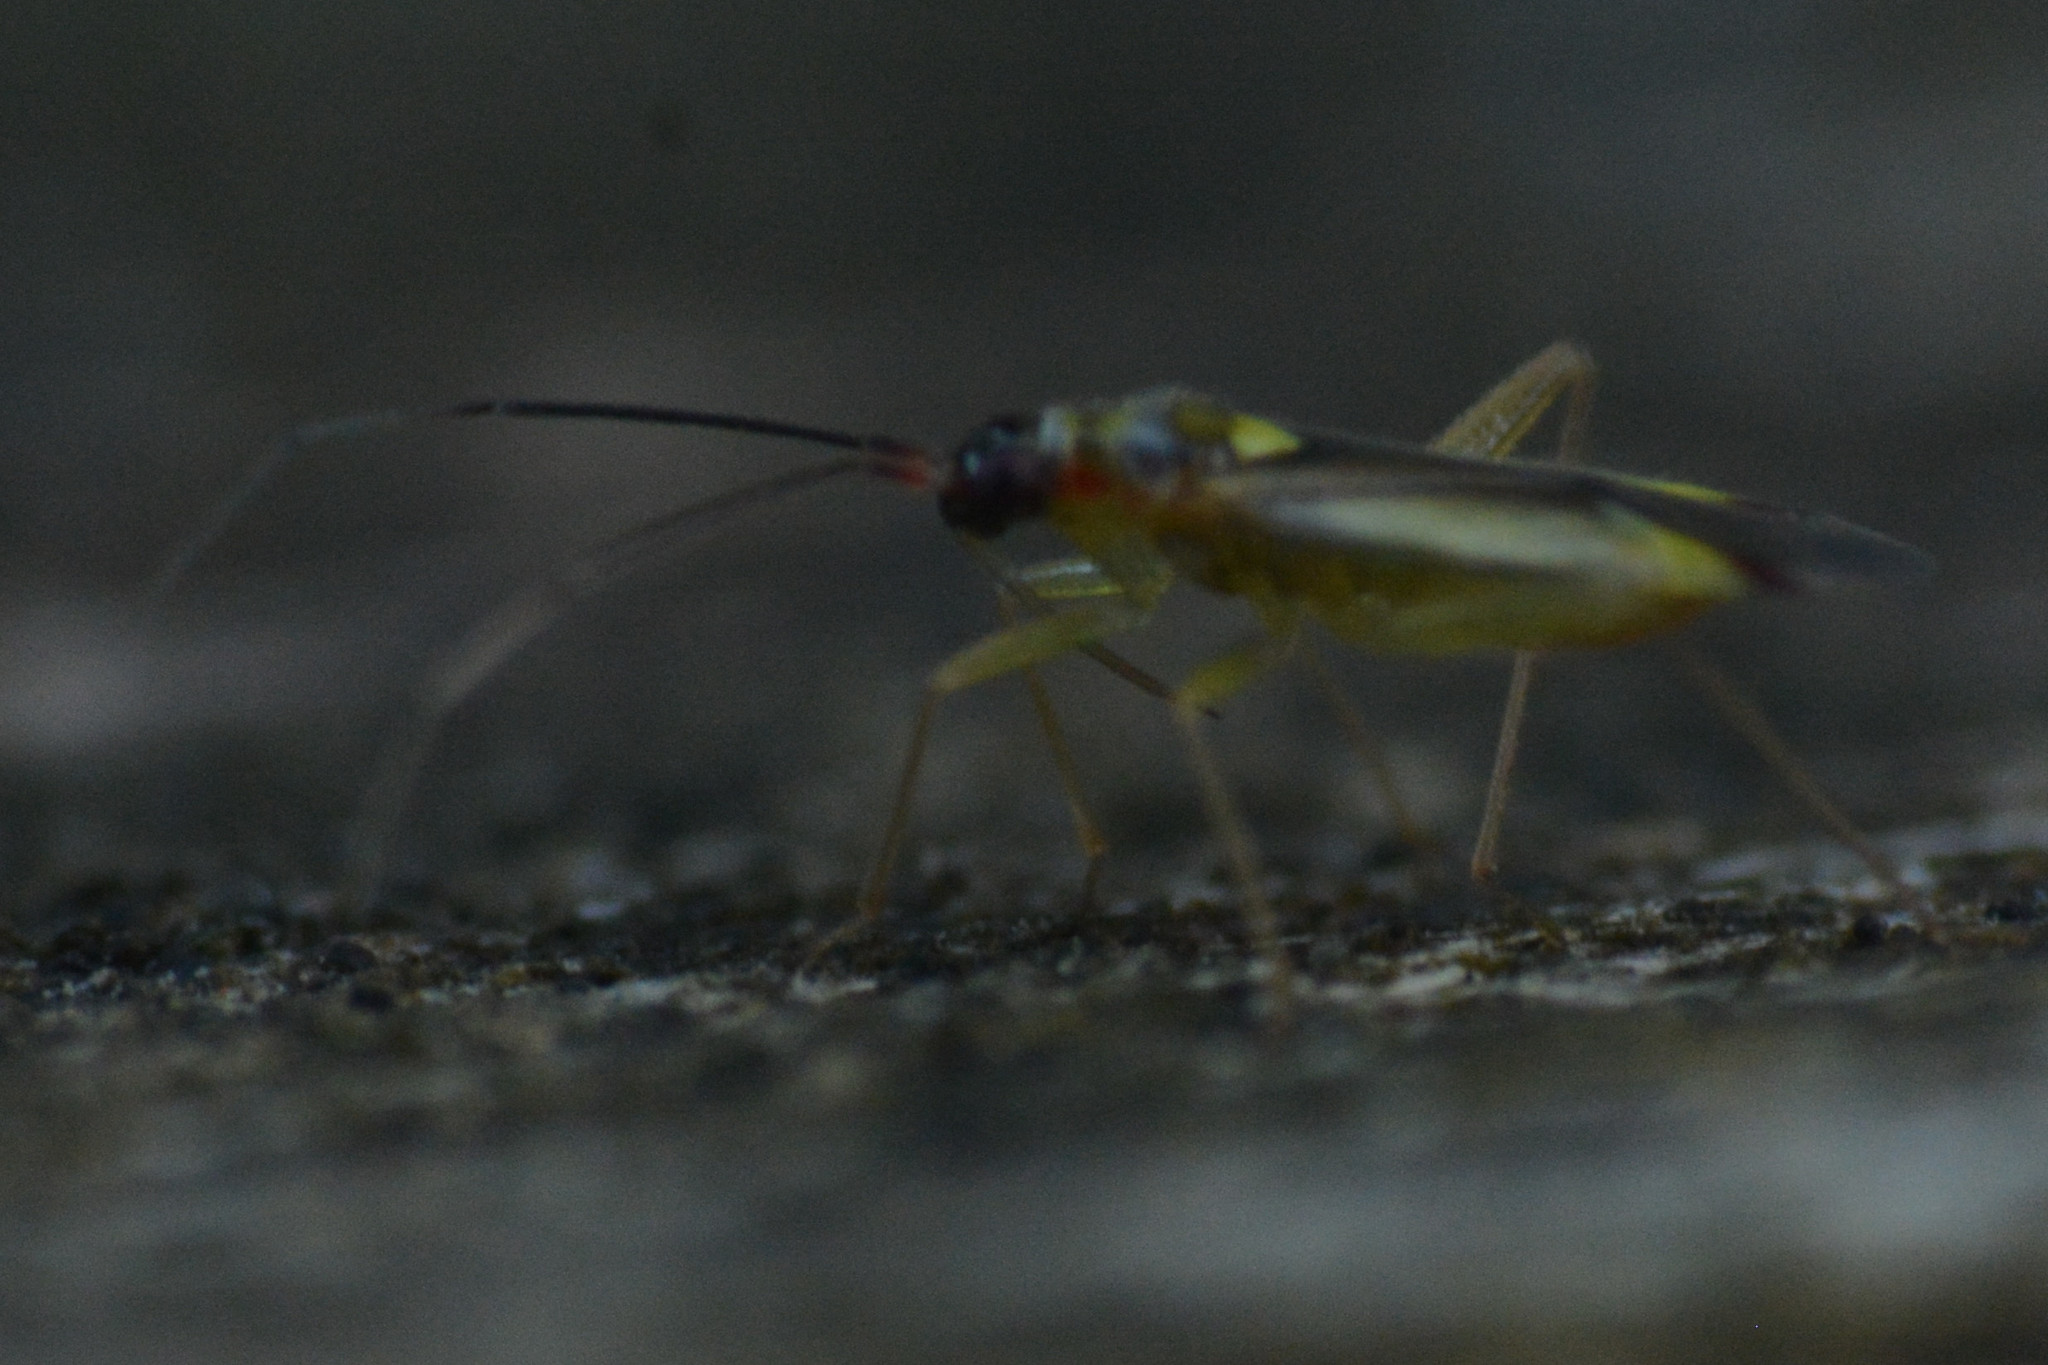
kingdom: Animalia
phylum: Arthropoda
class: Insecta
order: Hemiptera
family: Miridae
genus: Campyloneura
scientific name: Campyloneura virgula
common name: Predatory bug
